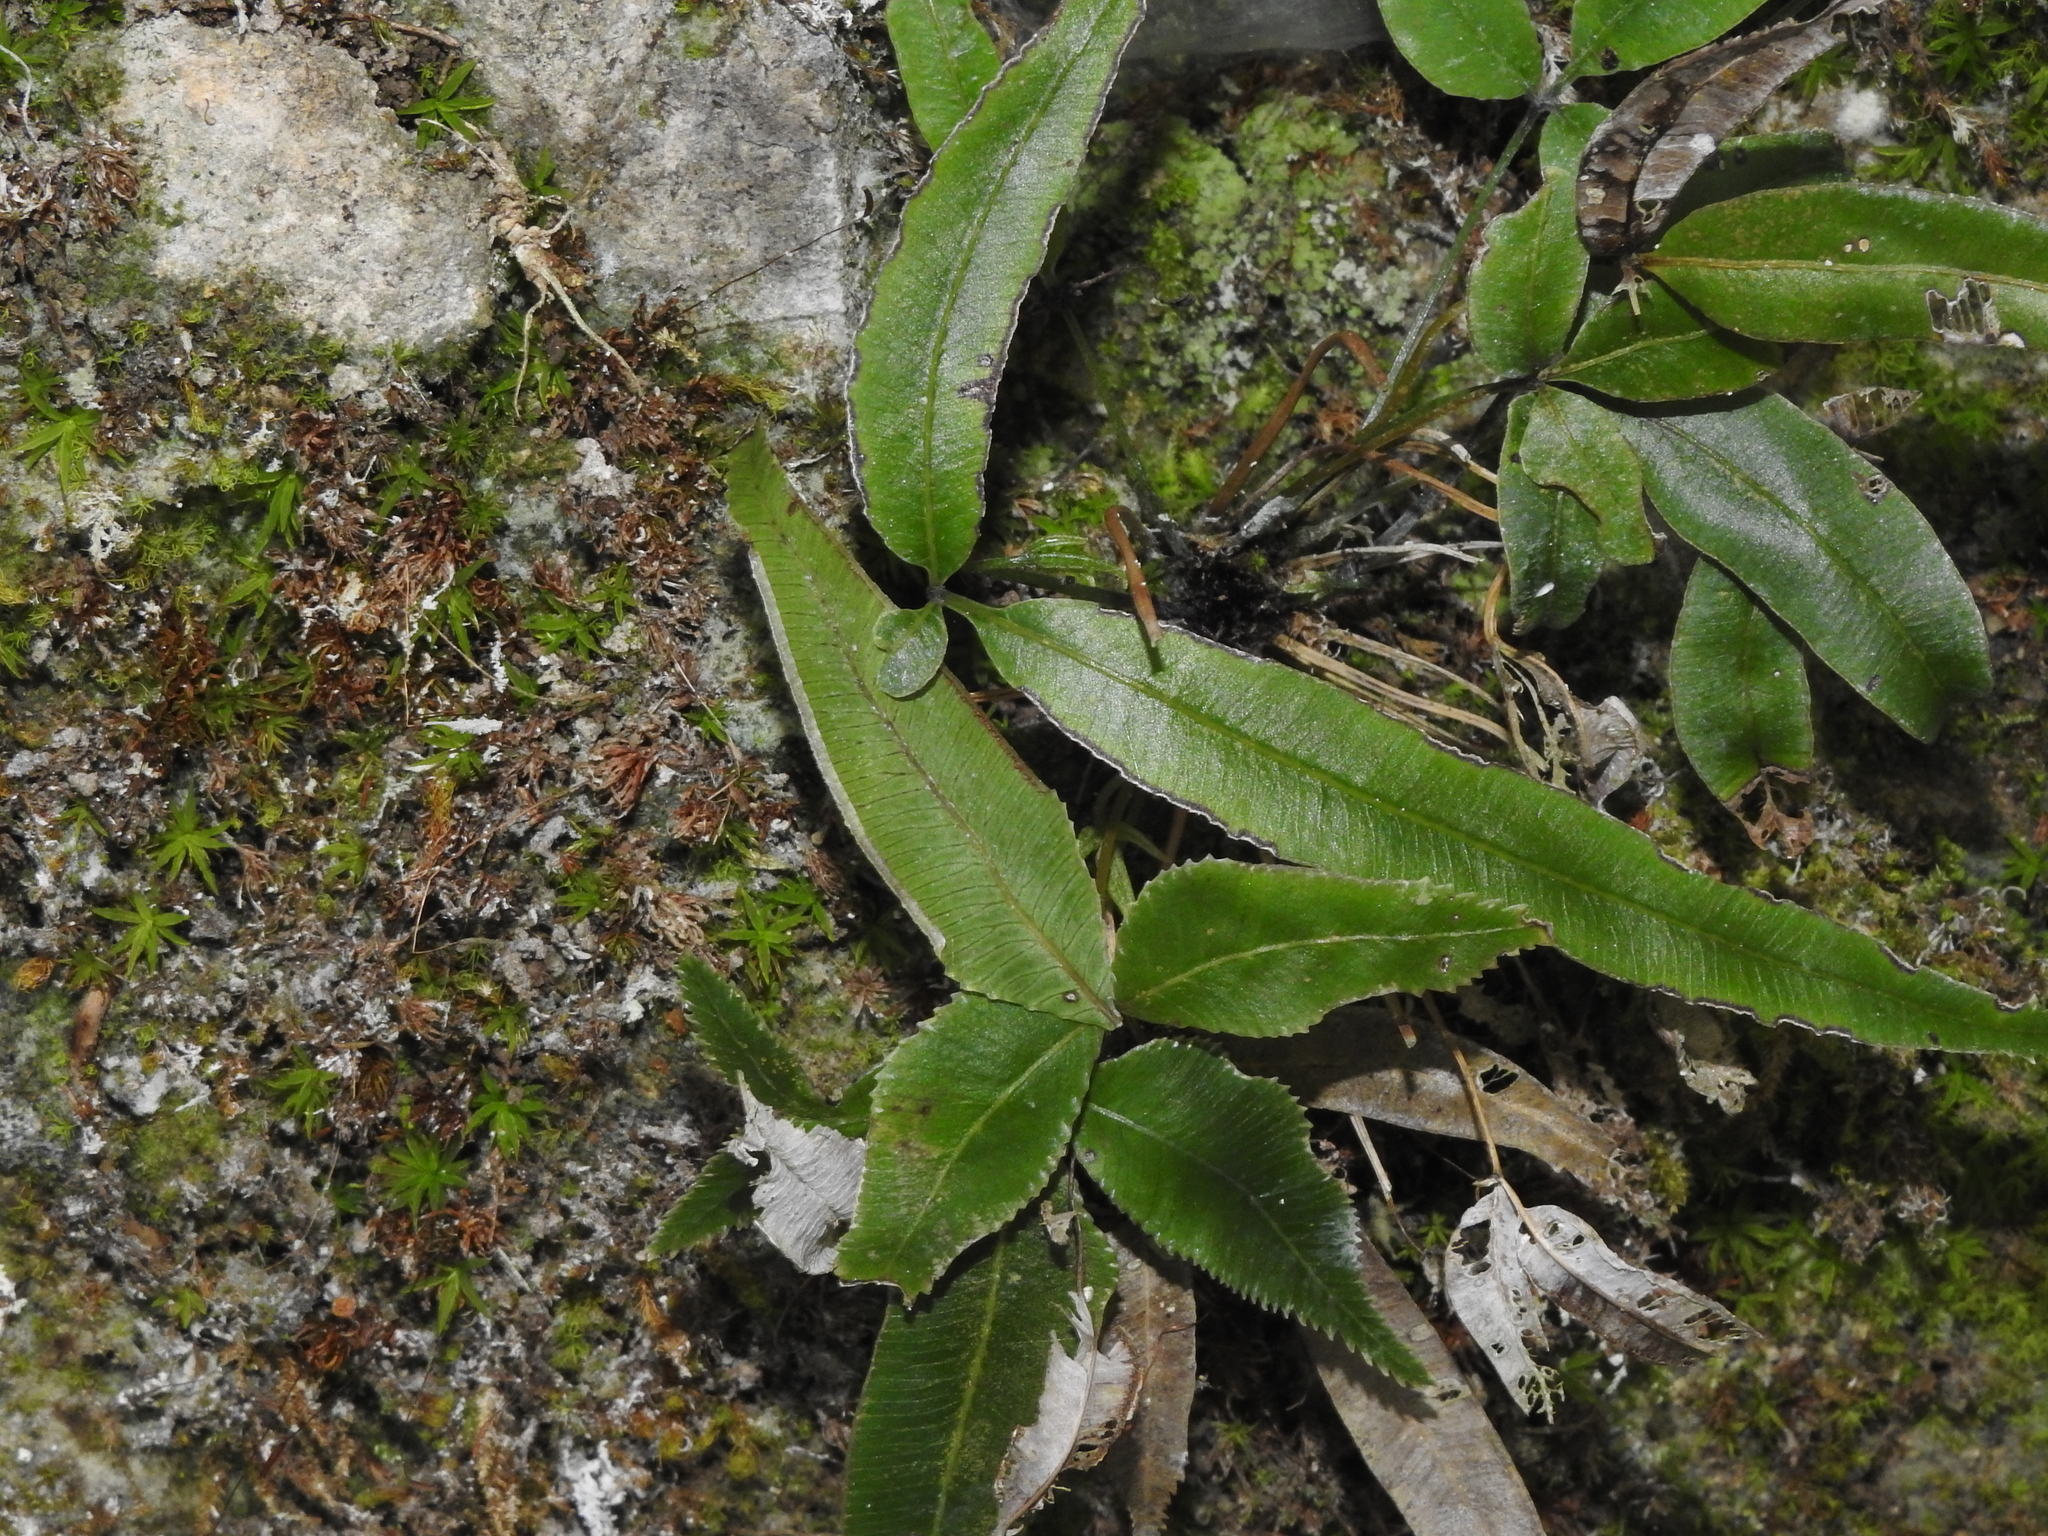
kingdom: Plantae
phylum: Tracheophyta
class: Polypodiopsida
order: Polypodiales
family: Pteridaceae
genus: Pteris
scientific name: Pteris deltodon
